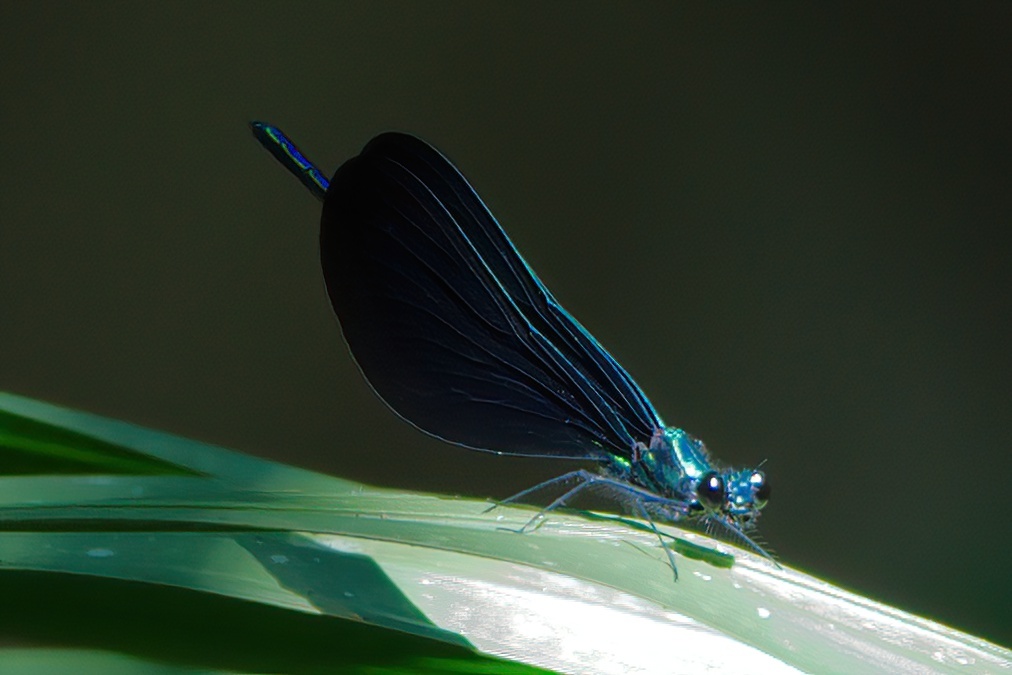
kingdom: Animalia
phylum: Arthropoda
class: Insecta
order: Odonata
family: Calopterygidae
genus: Calopteryx
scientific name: Calopteryx maculata
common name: Ebony jewelwing
